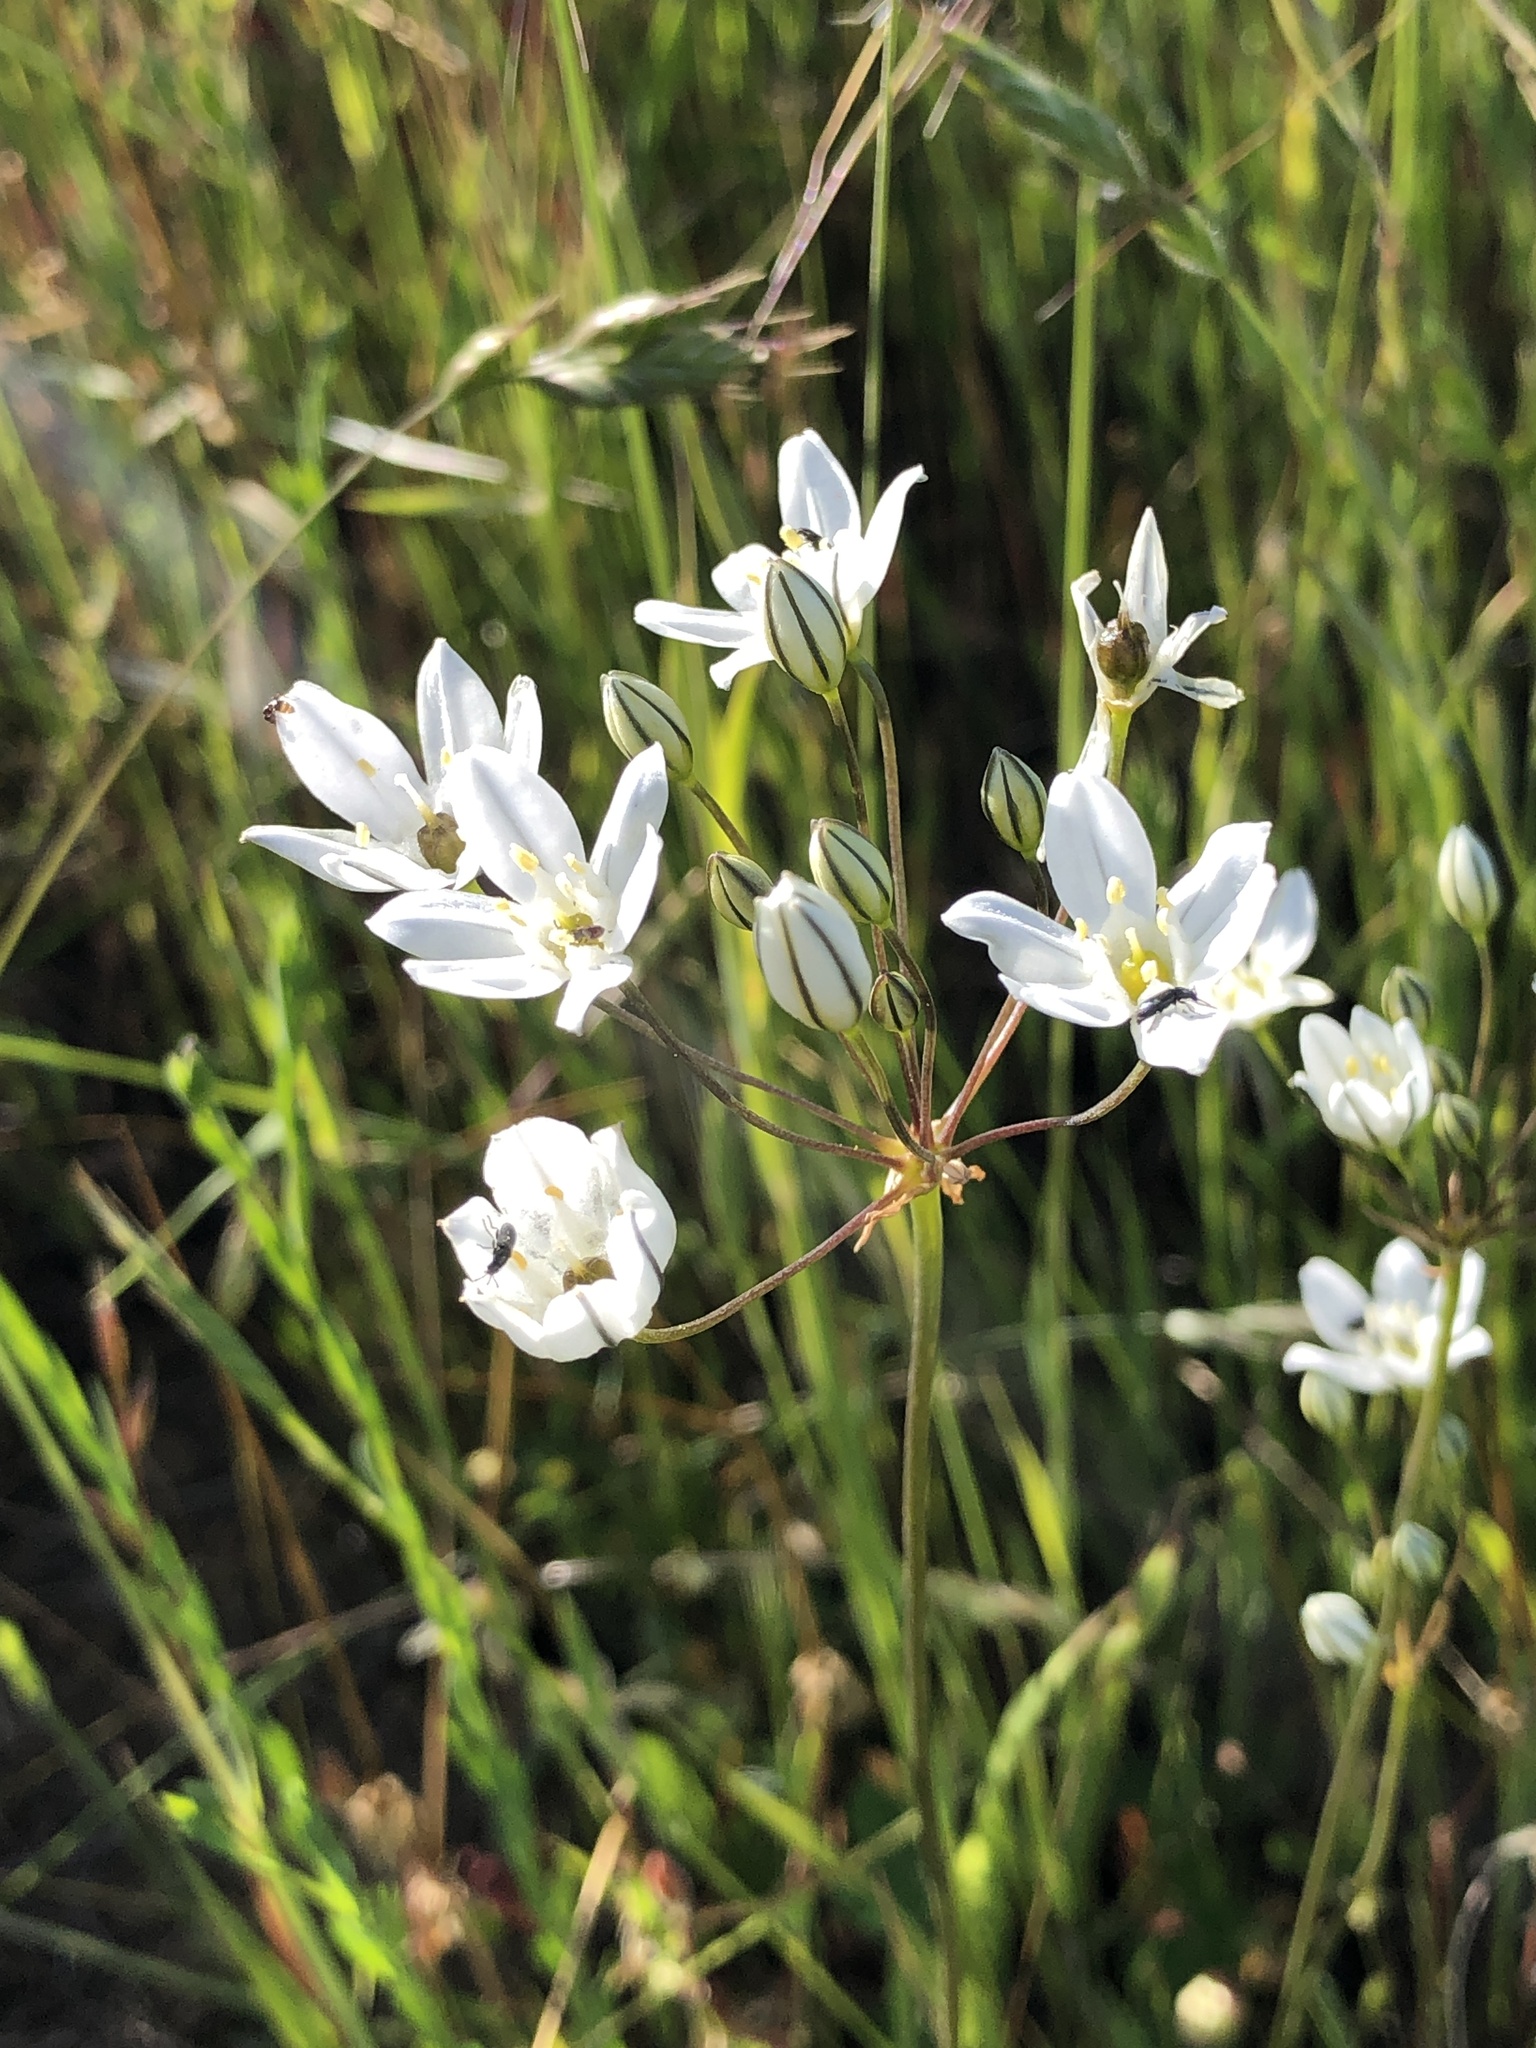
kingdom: Plantae
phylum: Tracheophyta
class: Liliopsida
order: Asparagales
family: Asparagaceae
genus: Triteleia
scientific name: Triteleia hyacinthina
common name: White brodiaea
